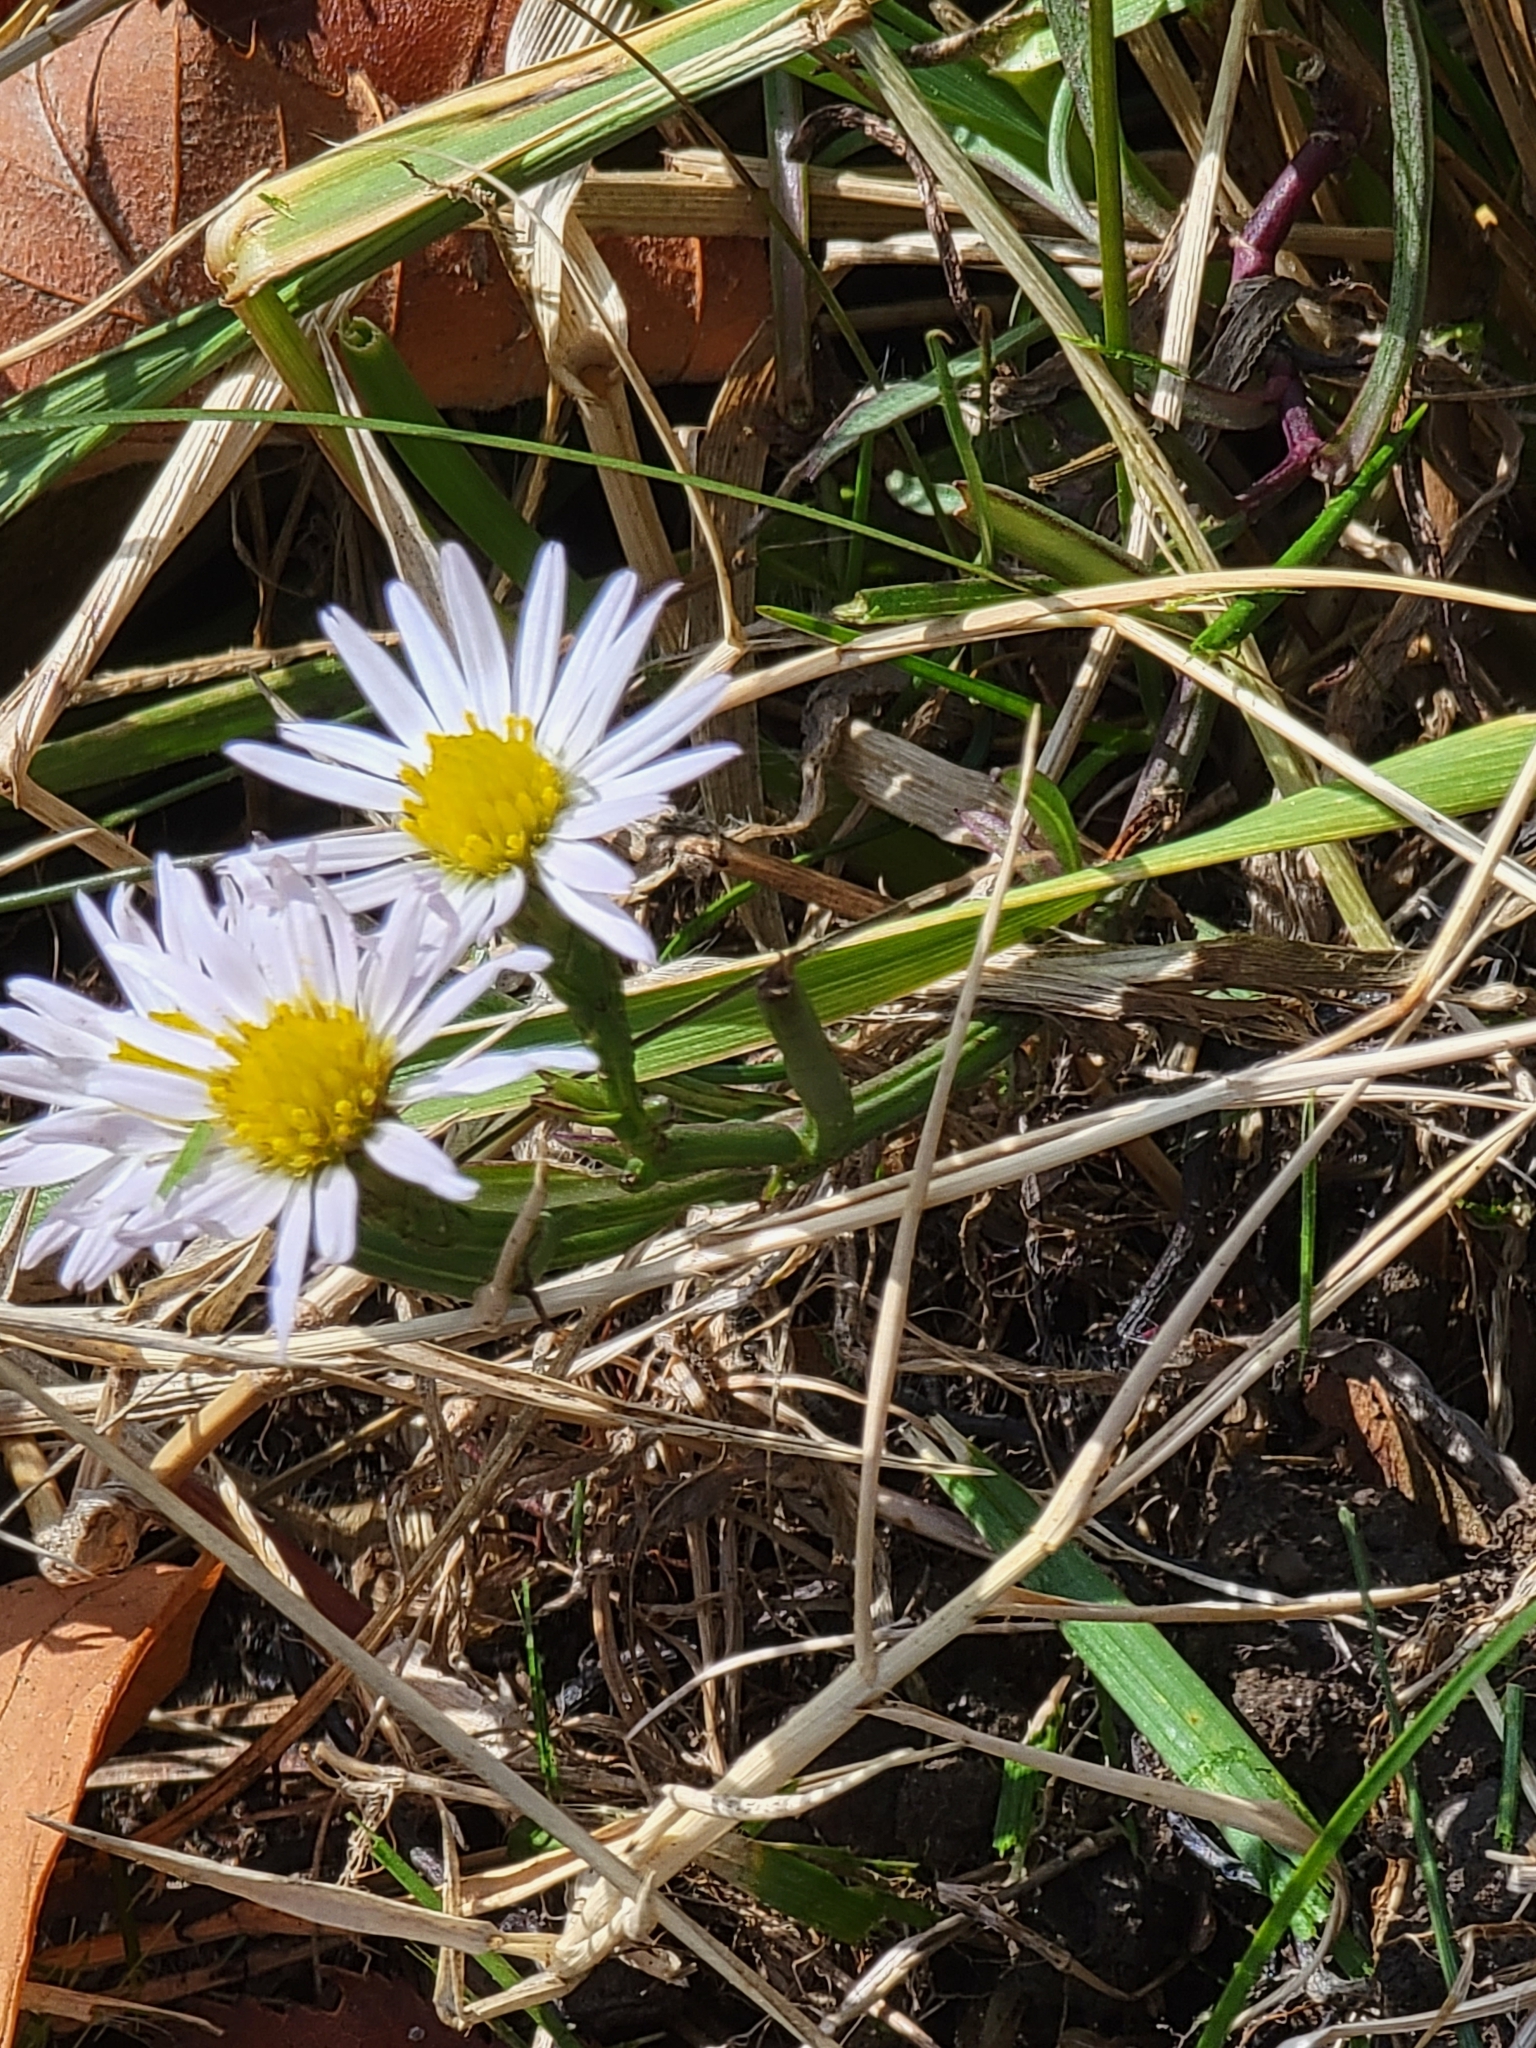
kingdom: Plantae
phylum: Tracheophyta
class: Magnoliopsida
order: Asterales
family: Asteraceae
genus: Symphyotrichum
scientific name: Symphyotrichum tenuifolium
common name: Perennial salt-marsh aster
